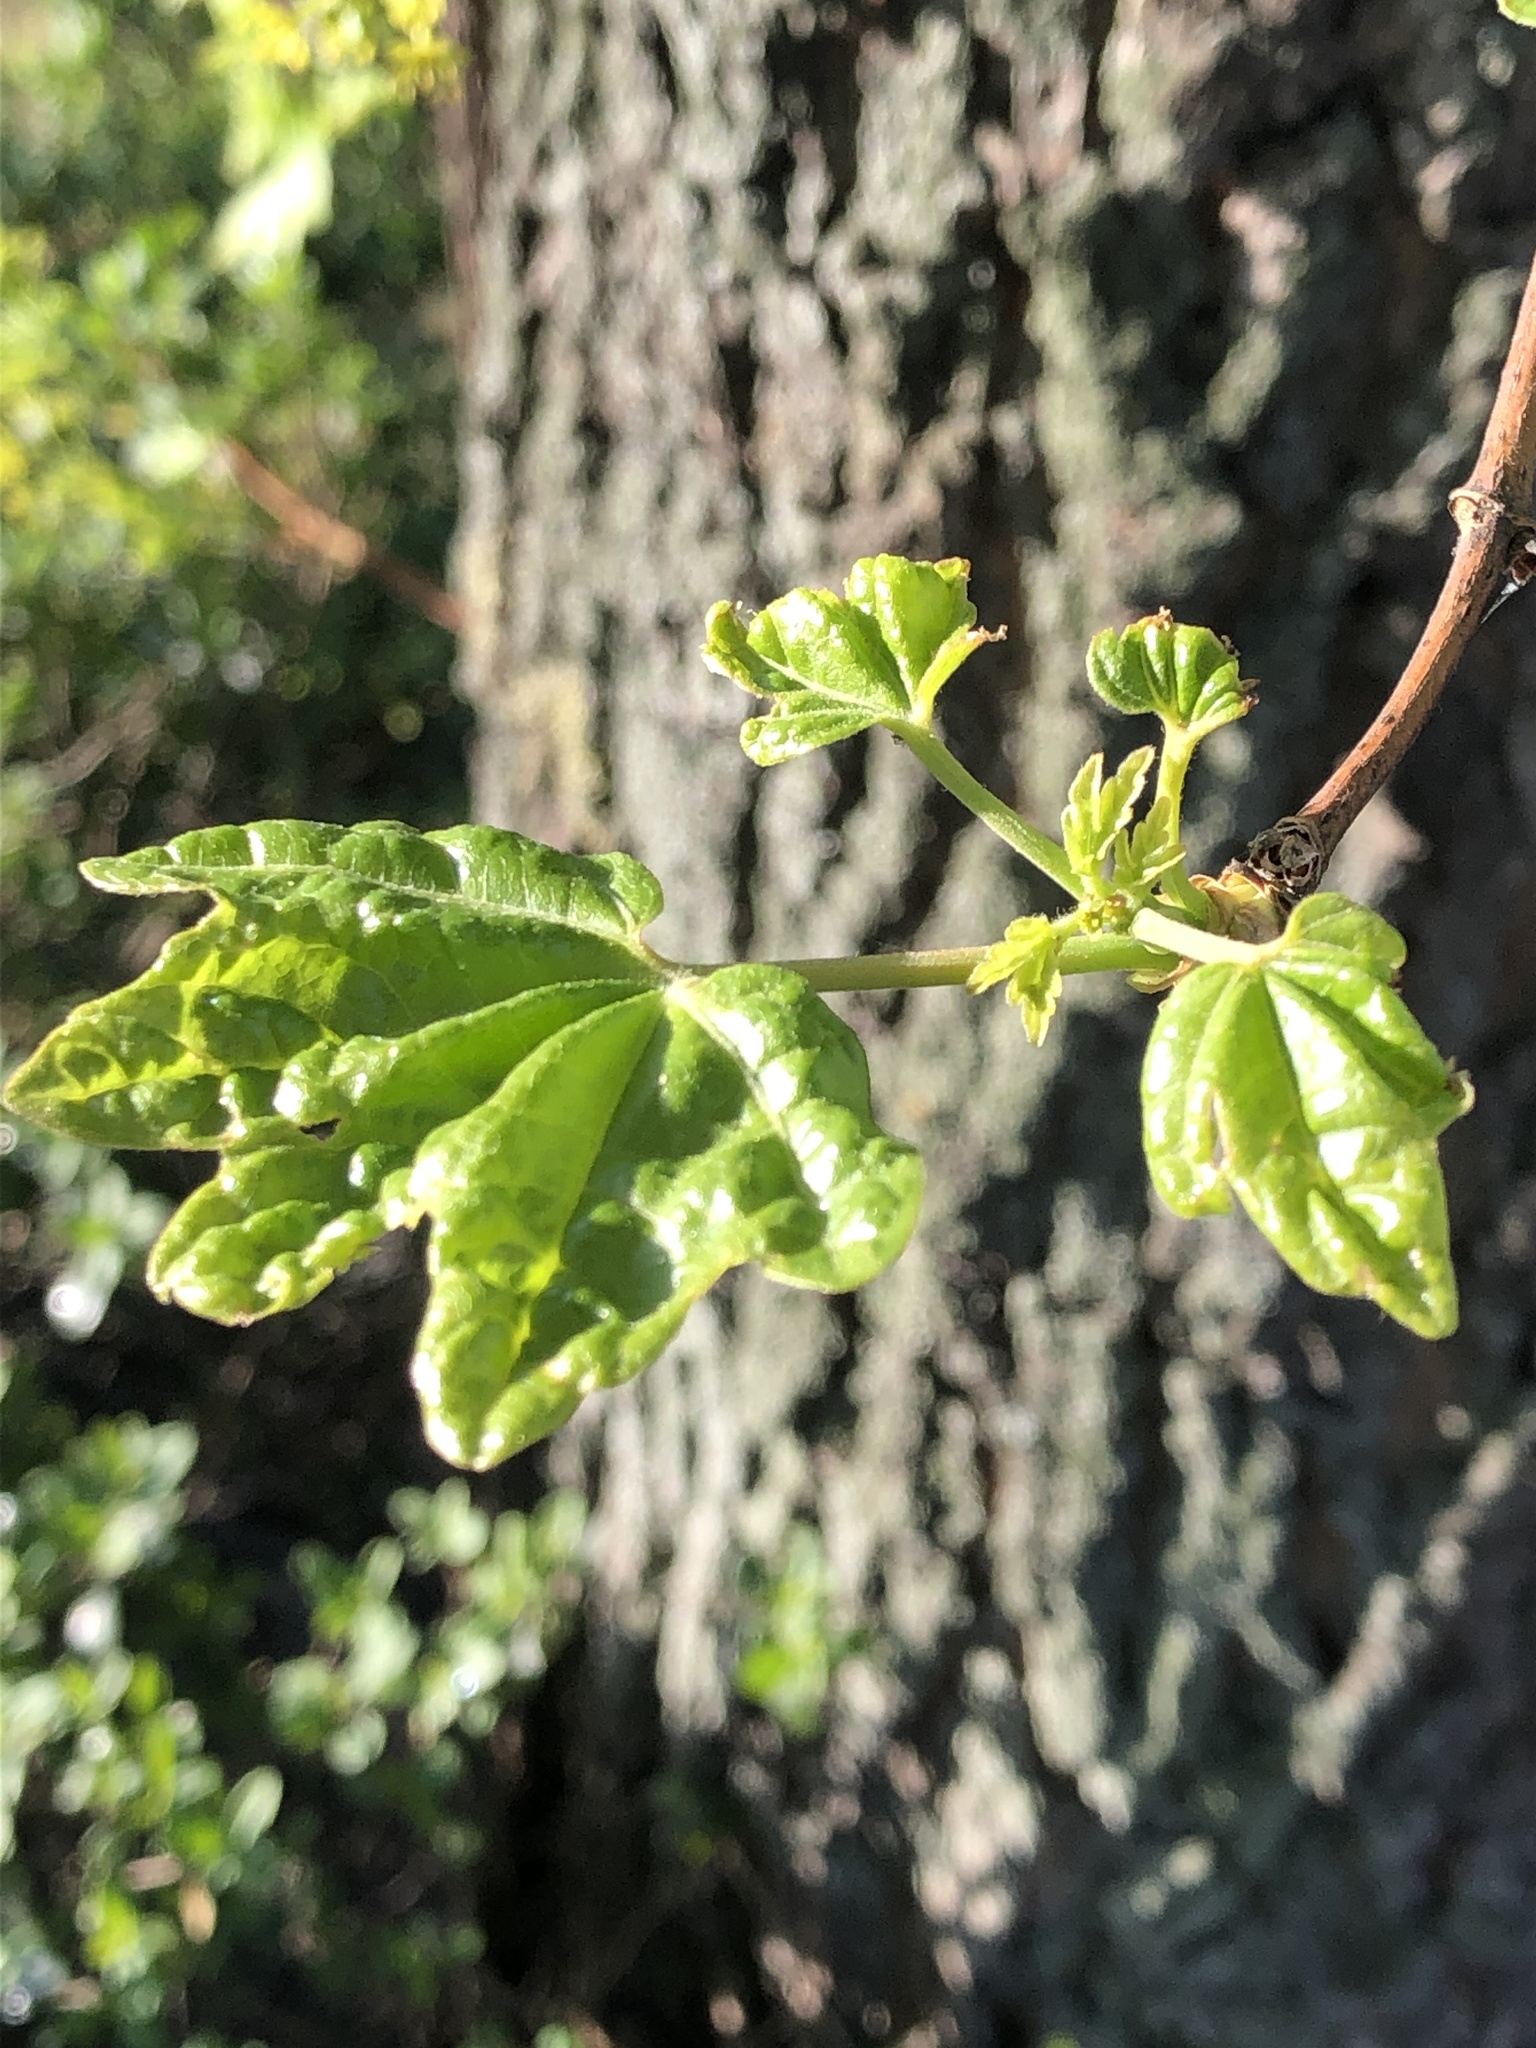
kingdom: Plantae
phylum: Tracheophyta
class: Magnoliopsida
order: Sapindales
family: Sapindaceae
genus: Acer
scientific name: Acer campestre
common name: Field maple
